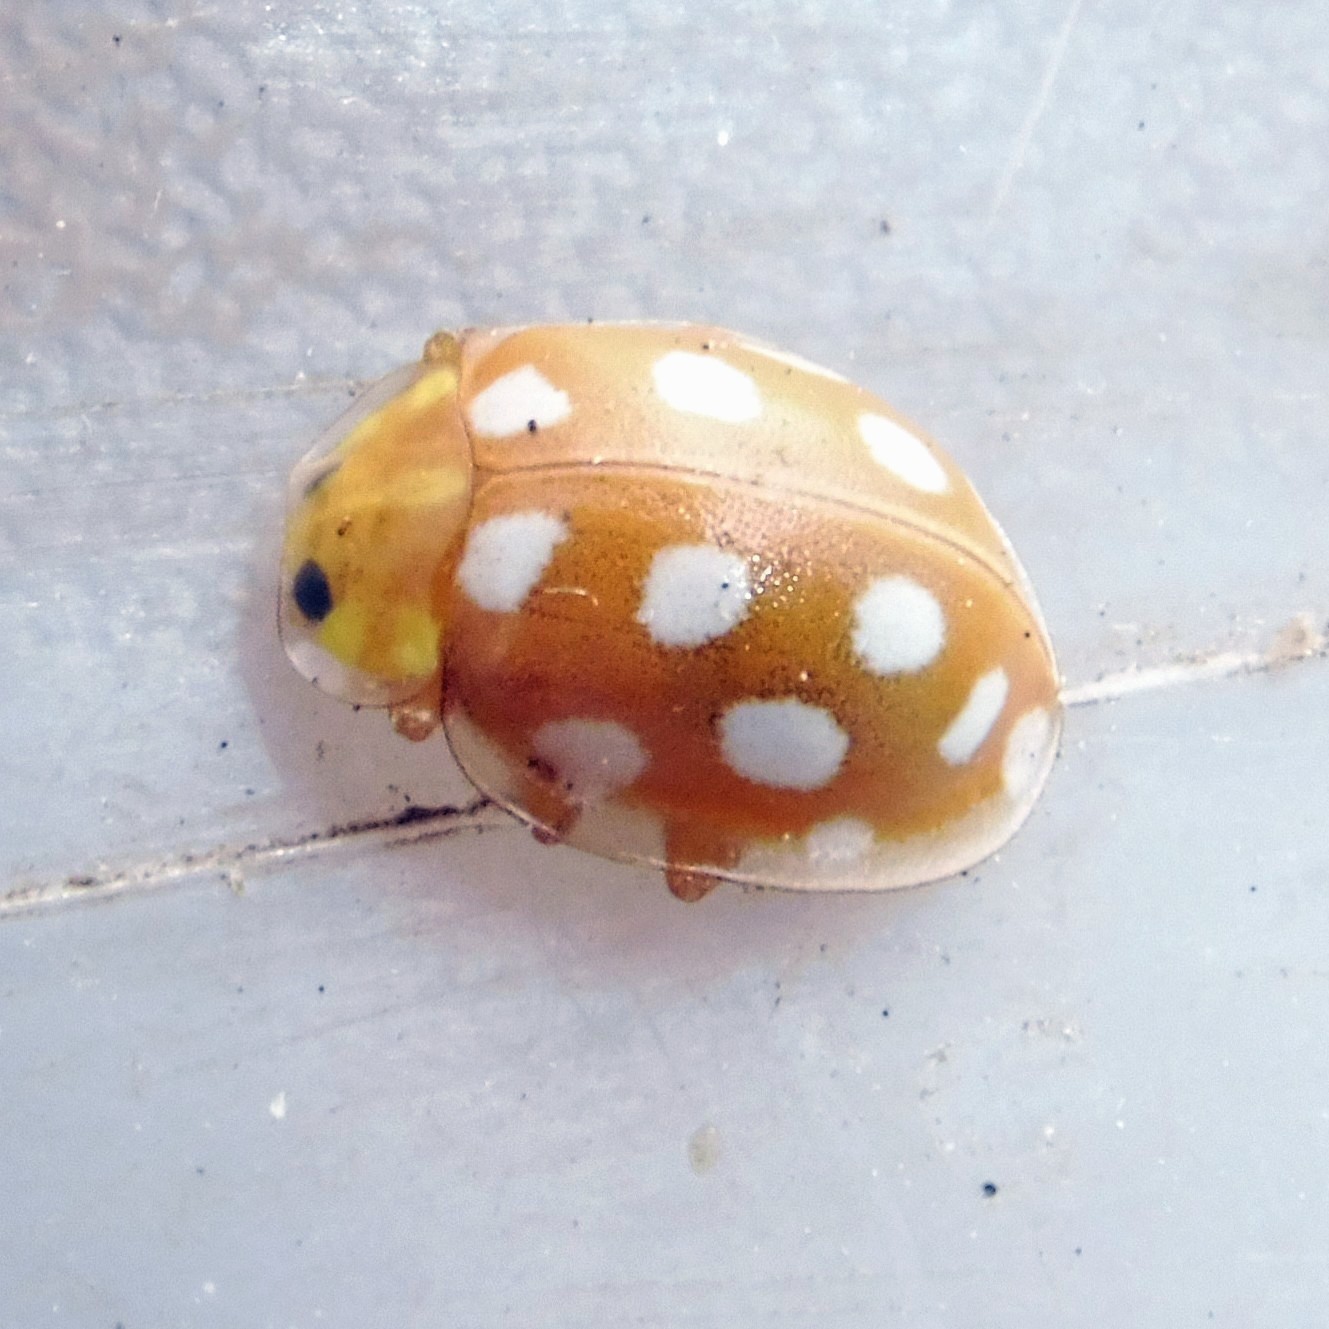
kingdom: Animalia
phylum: Arthropoda
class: Insecta
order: Coleoptera
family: Coccinellidae
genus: Halyzia
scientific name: Halyzia sedecimguttata
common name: Orange ladybird
